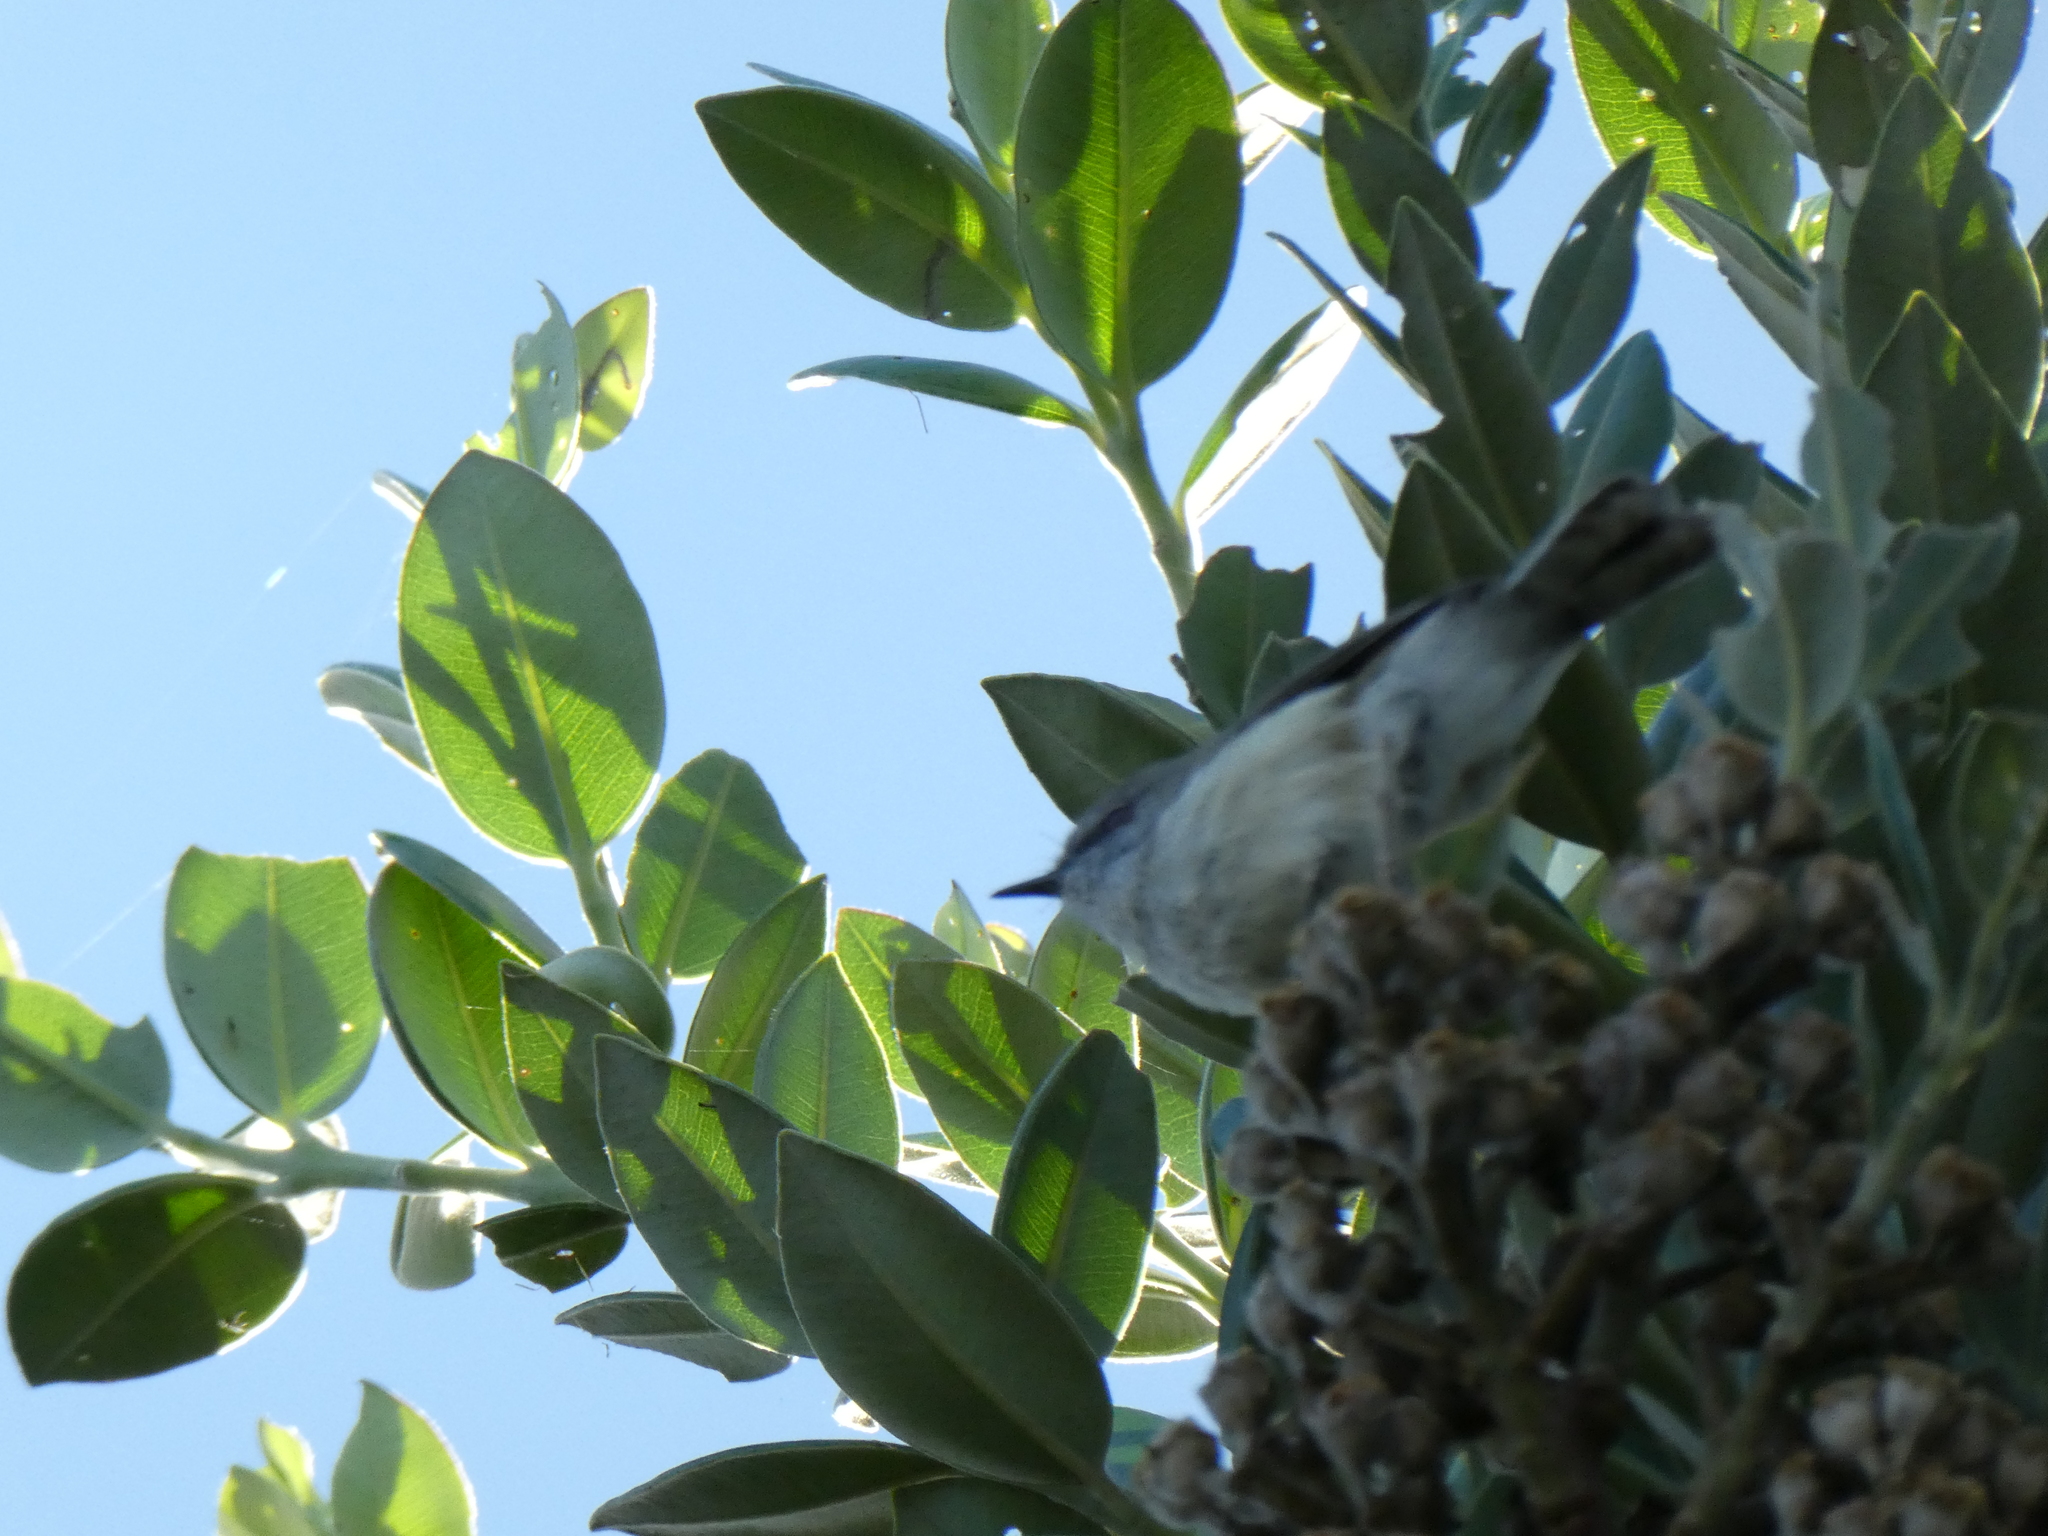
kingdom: Animalia
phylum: Chordata
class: Aves
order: Passeriformes
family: Acanthizidae
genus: Gerygone
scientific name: Gerygone igata
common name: Grey gerygone
